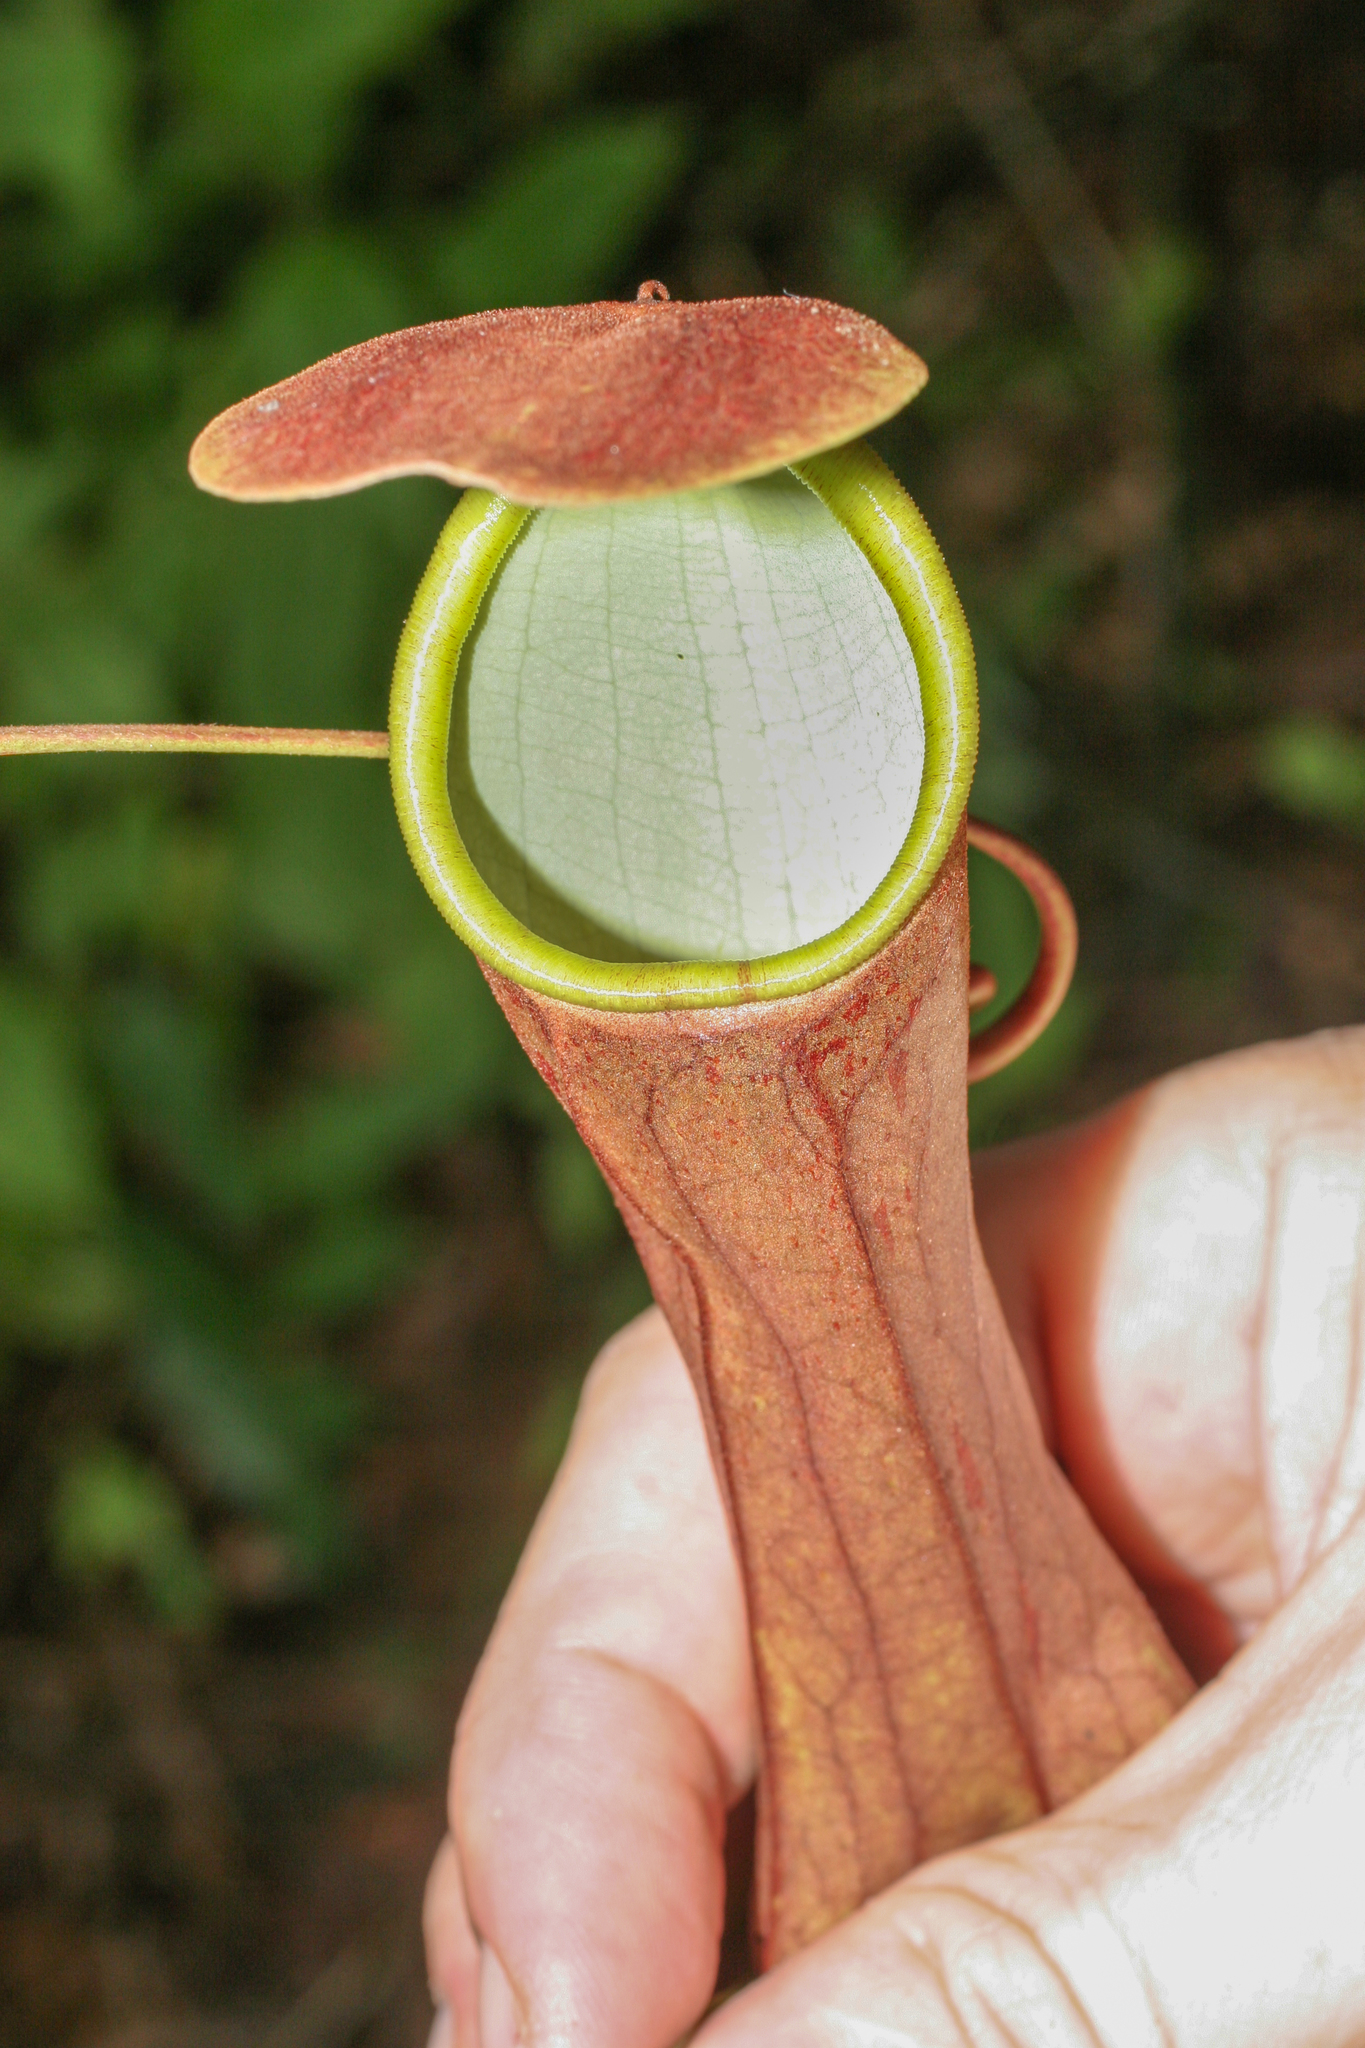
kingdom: Plantae
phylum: Tracheophyta
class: Magnoliopsida
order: Caryophyllales
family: Nepenthaceae
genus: Nepenthes
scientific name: Nepenthes distillatoria
